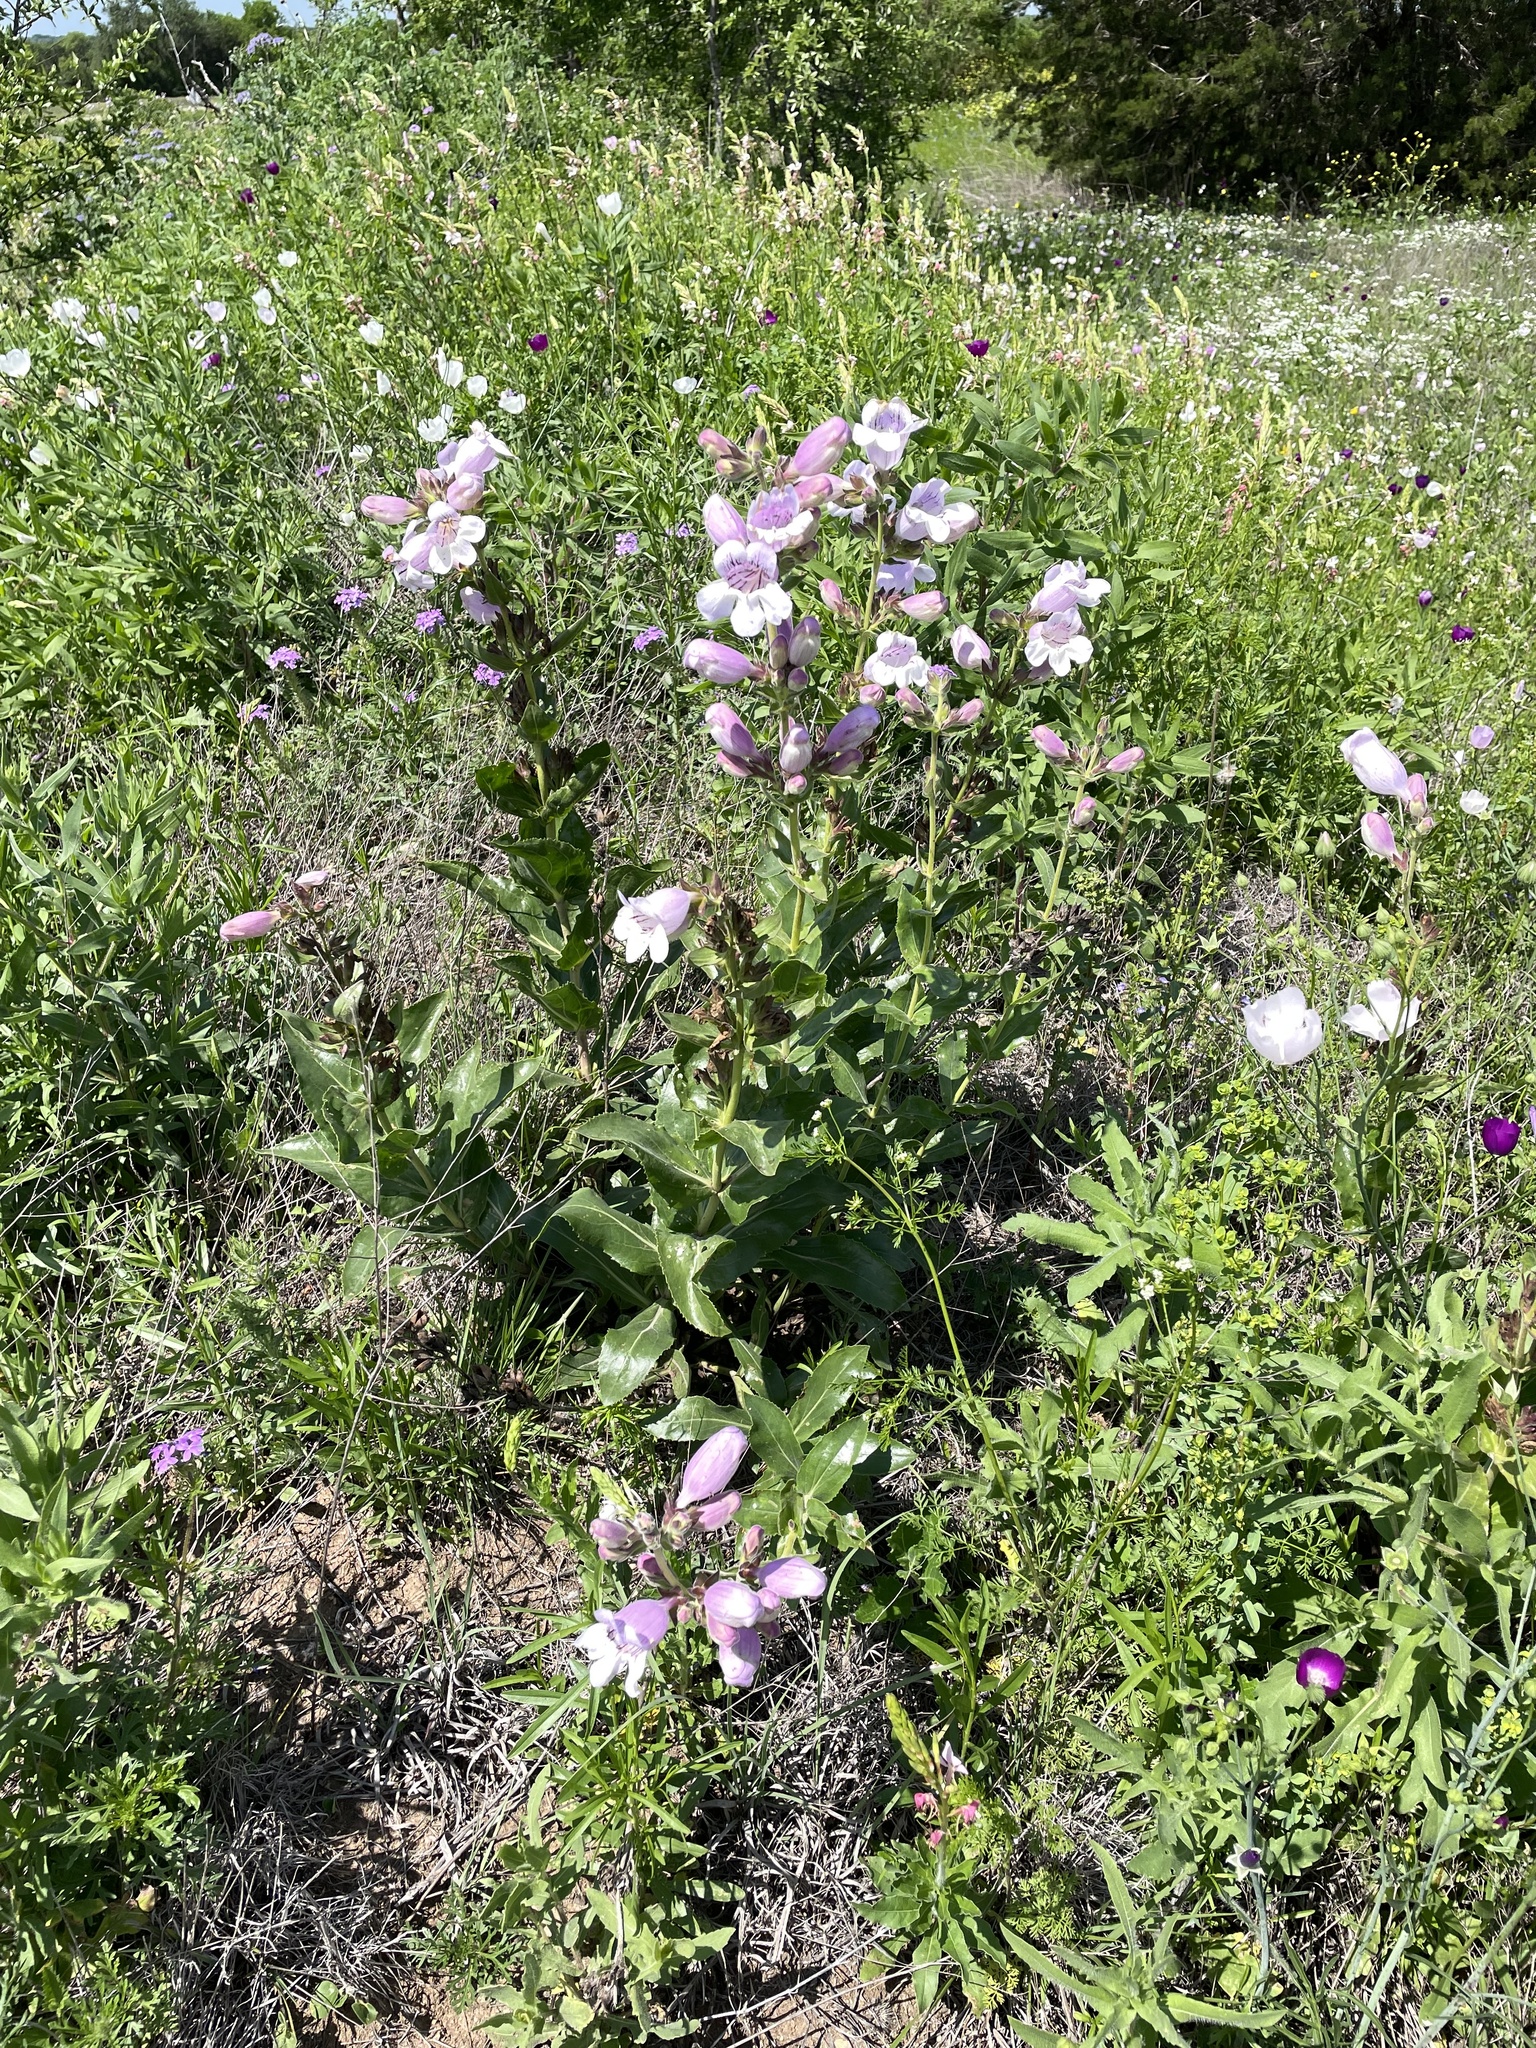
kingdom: Plantae
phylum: Tracheophyta
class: Magnoliopsida
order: Lamiales
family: Plantaginaceae
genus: Penstemon
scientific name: Penstemon cobaea
